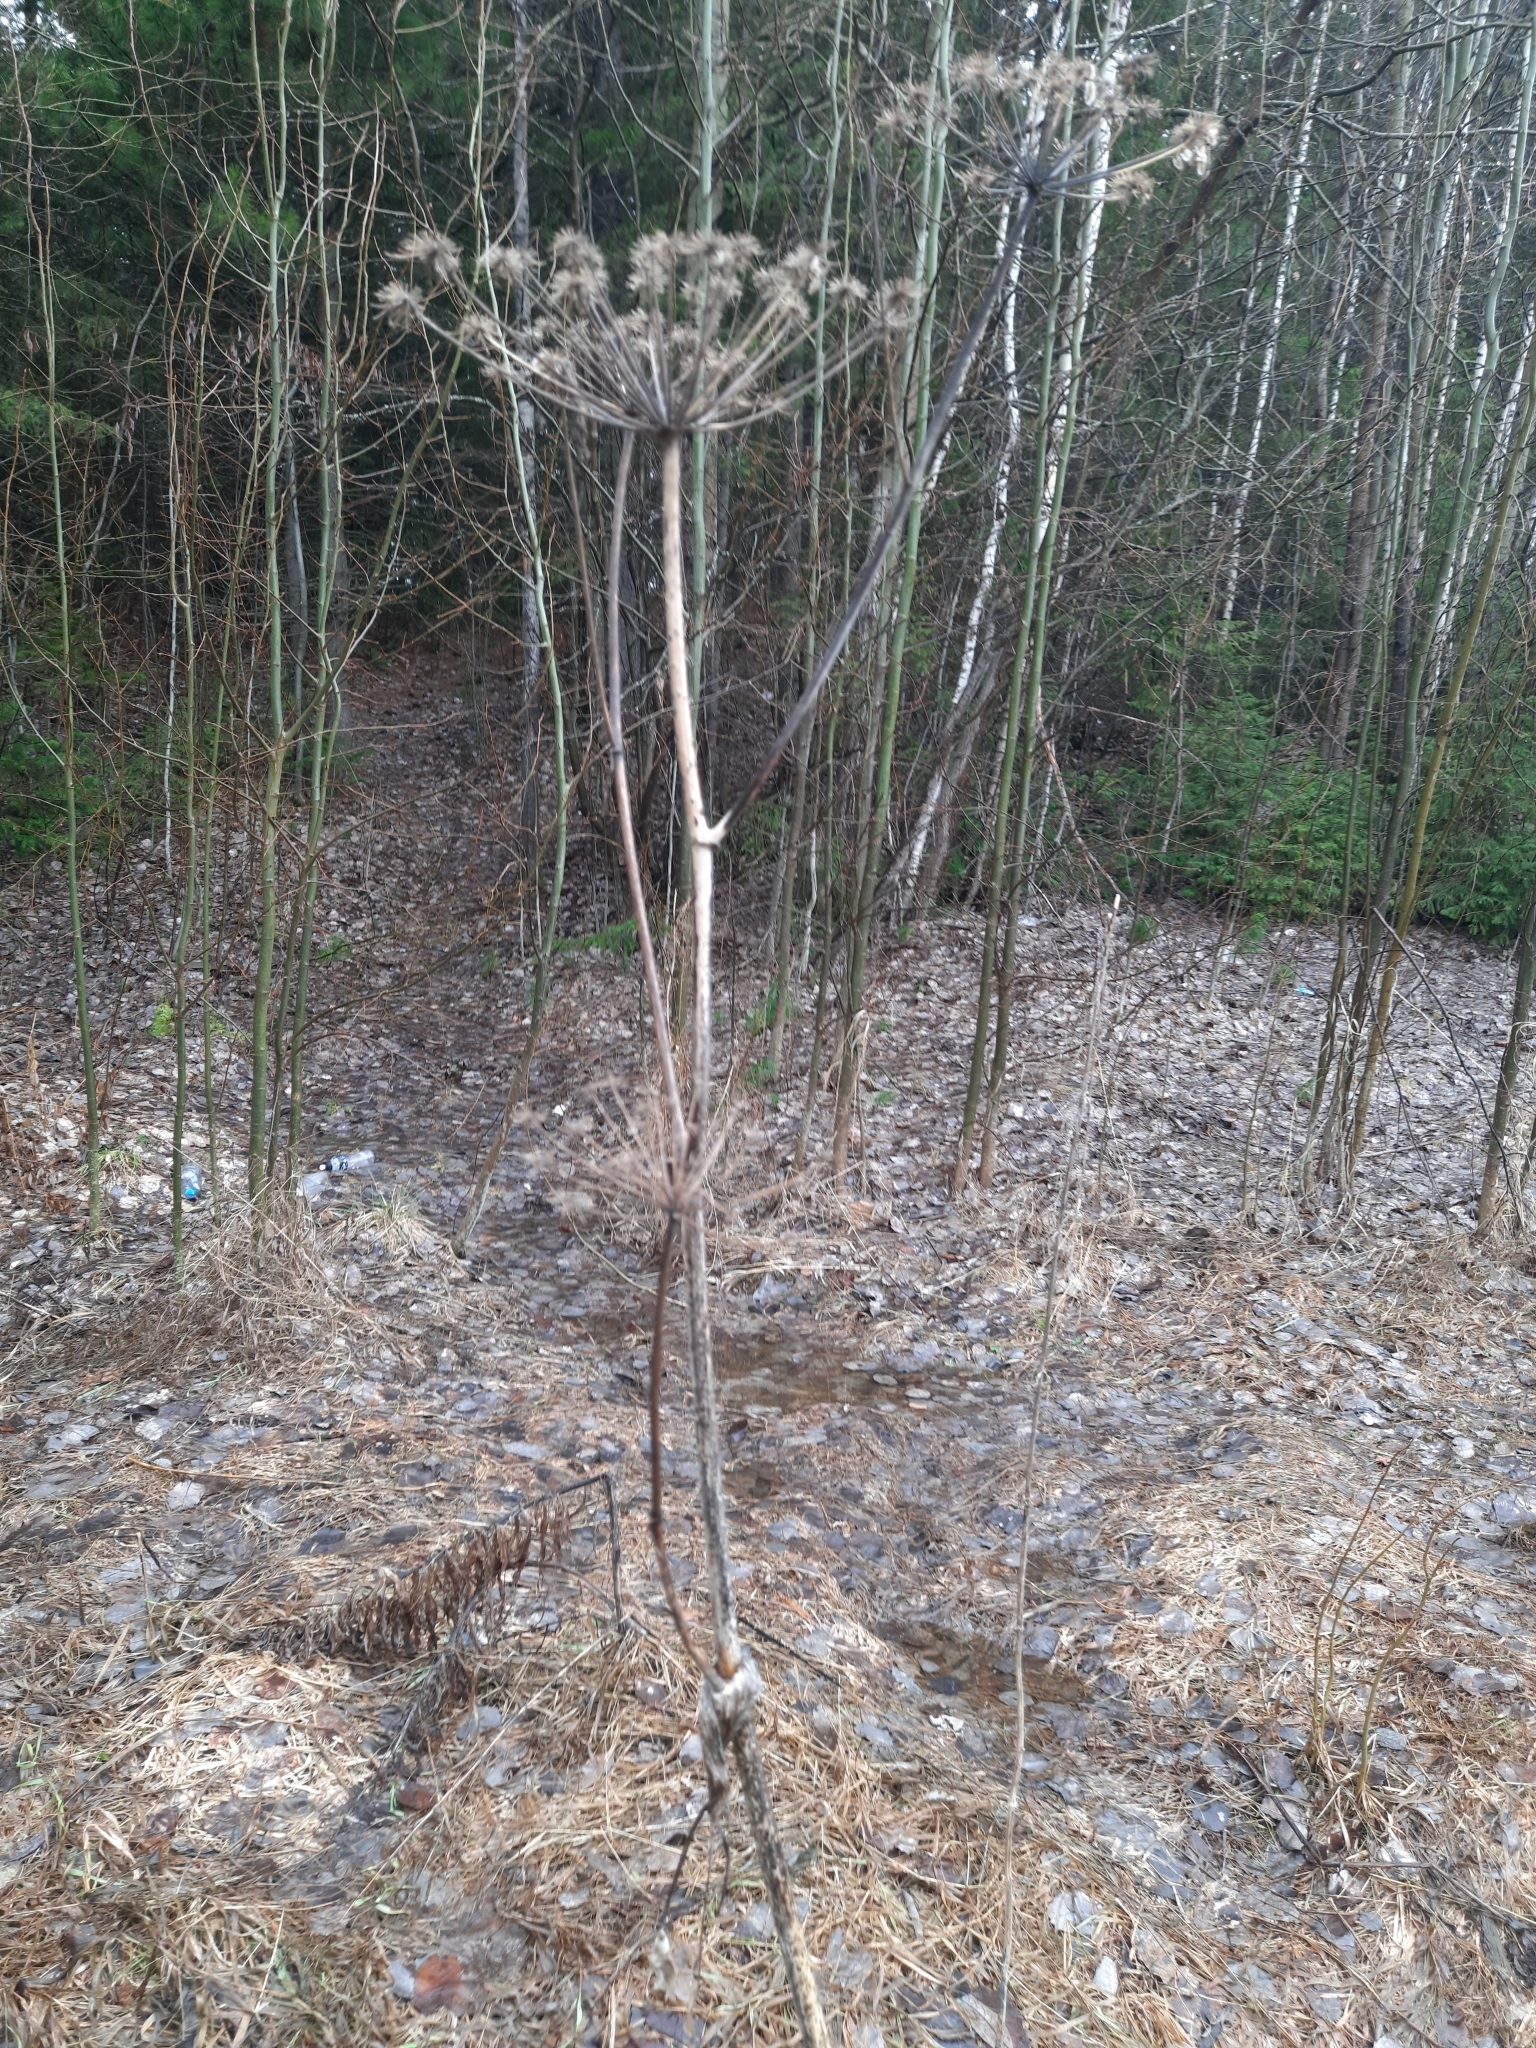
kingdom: Plantae
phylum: Tracheophyta
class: Magnoliopsida
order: Apiales
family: Apiaceae
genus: Angelica
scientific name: Angelica sylvestris
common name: Wild angelica
